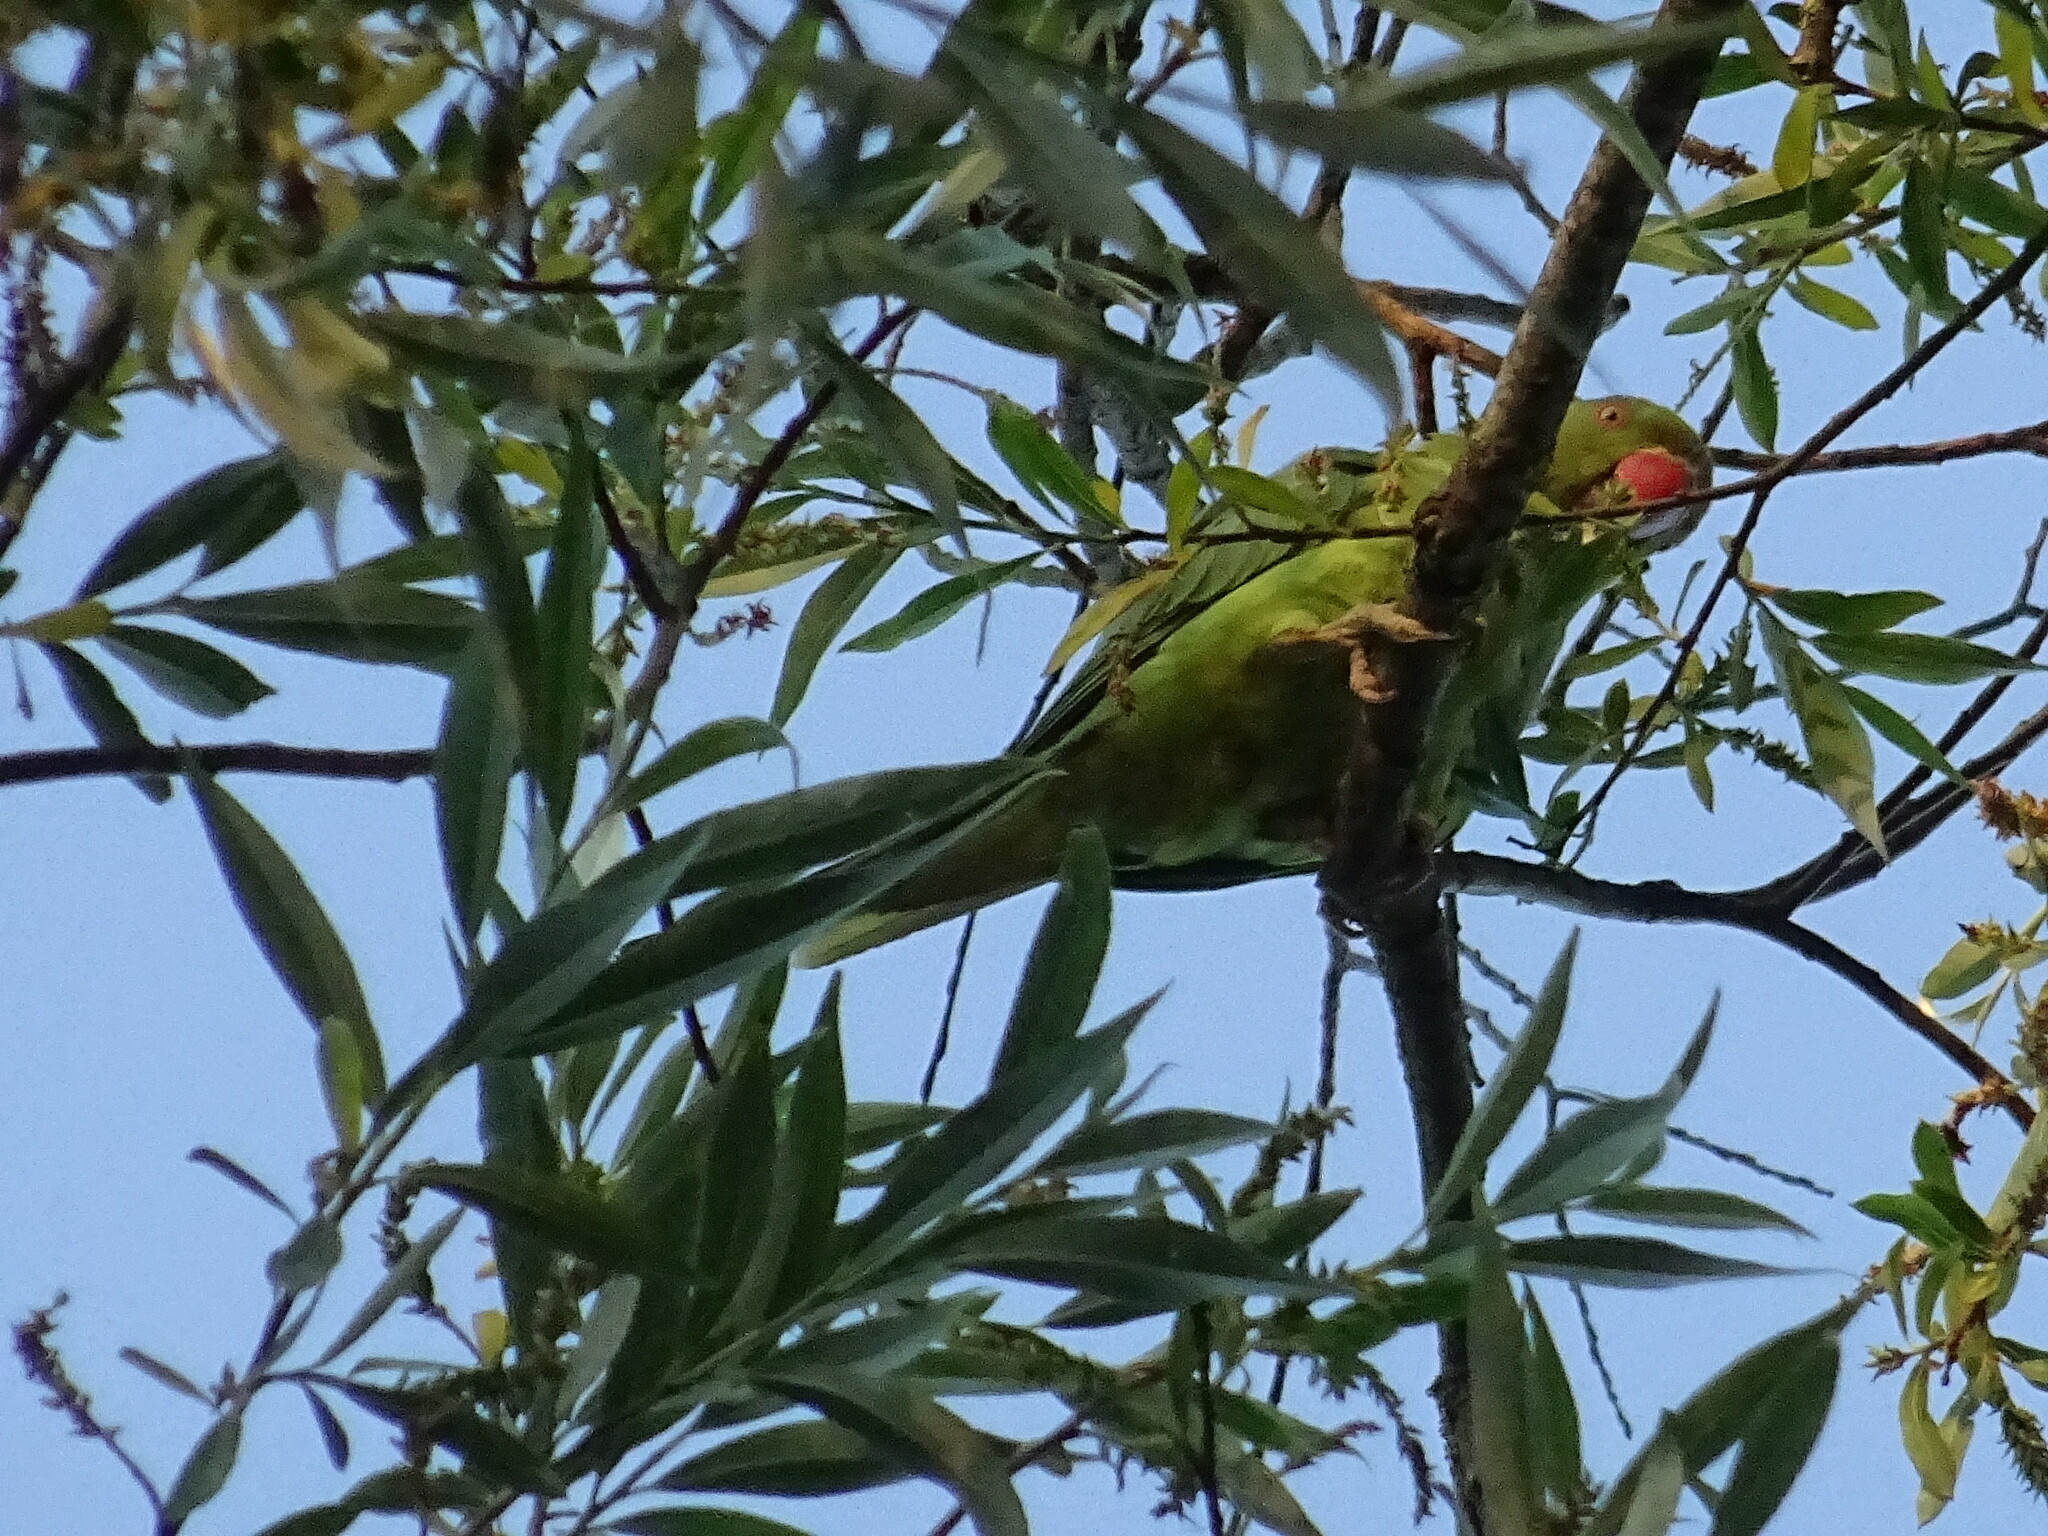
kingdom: Animalia
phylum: Chordata
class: Aves
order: Psittaciformes
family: Psittacidae
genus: Psittacula
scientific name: Psittacula krameri
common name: Rose-ringed parakeet
